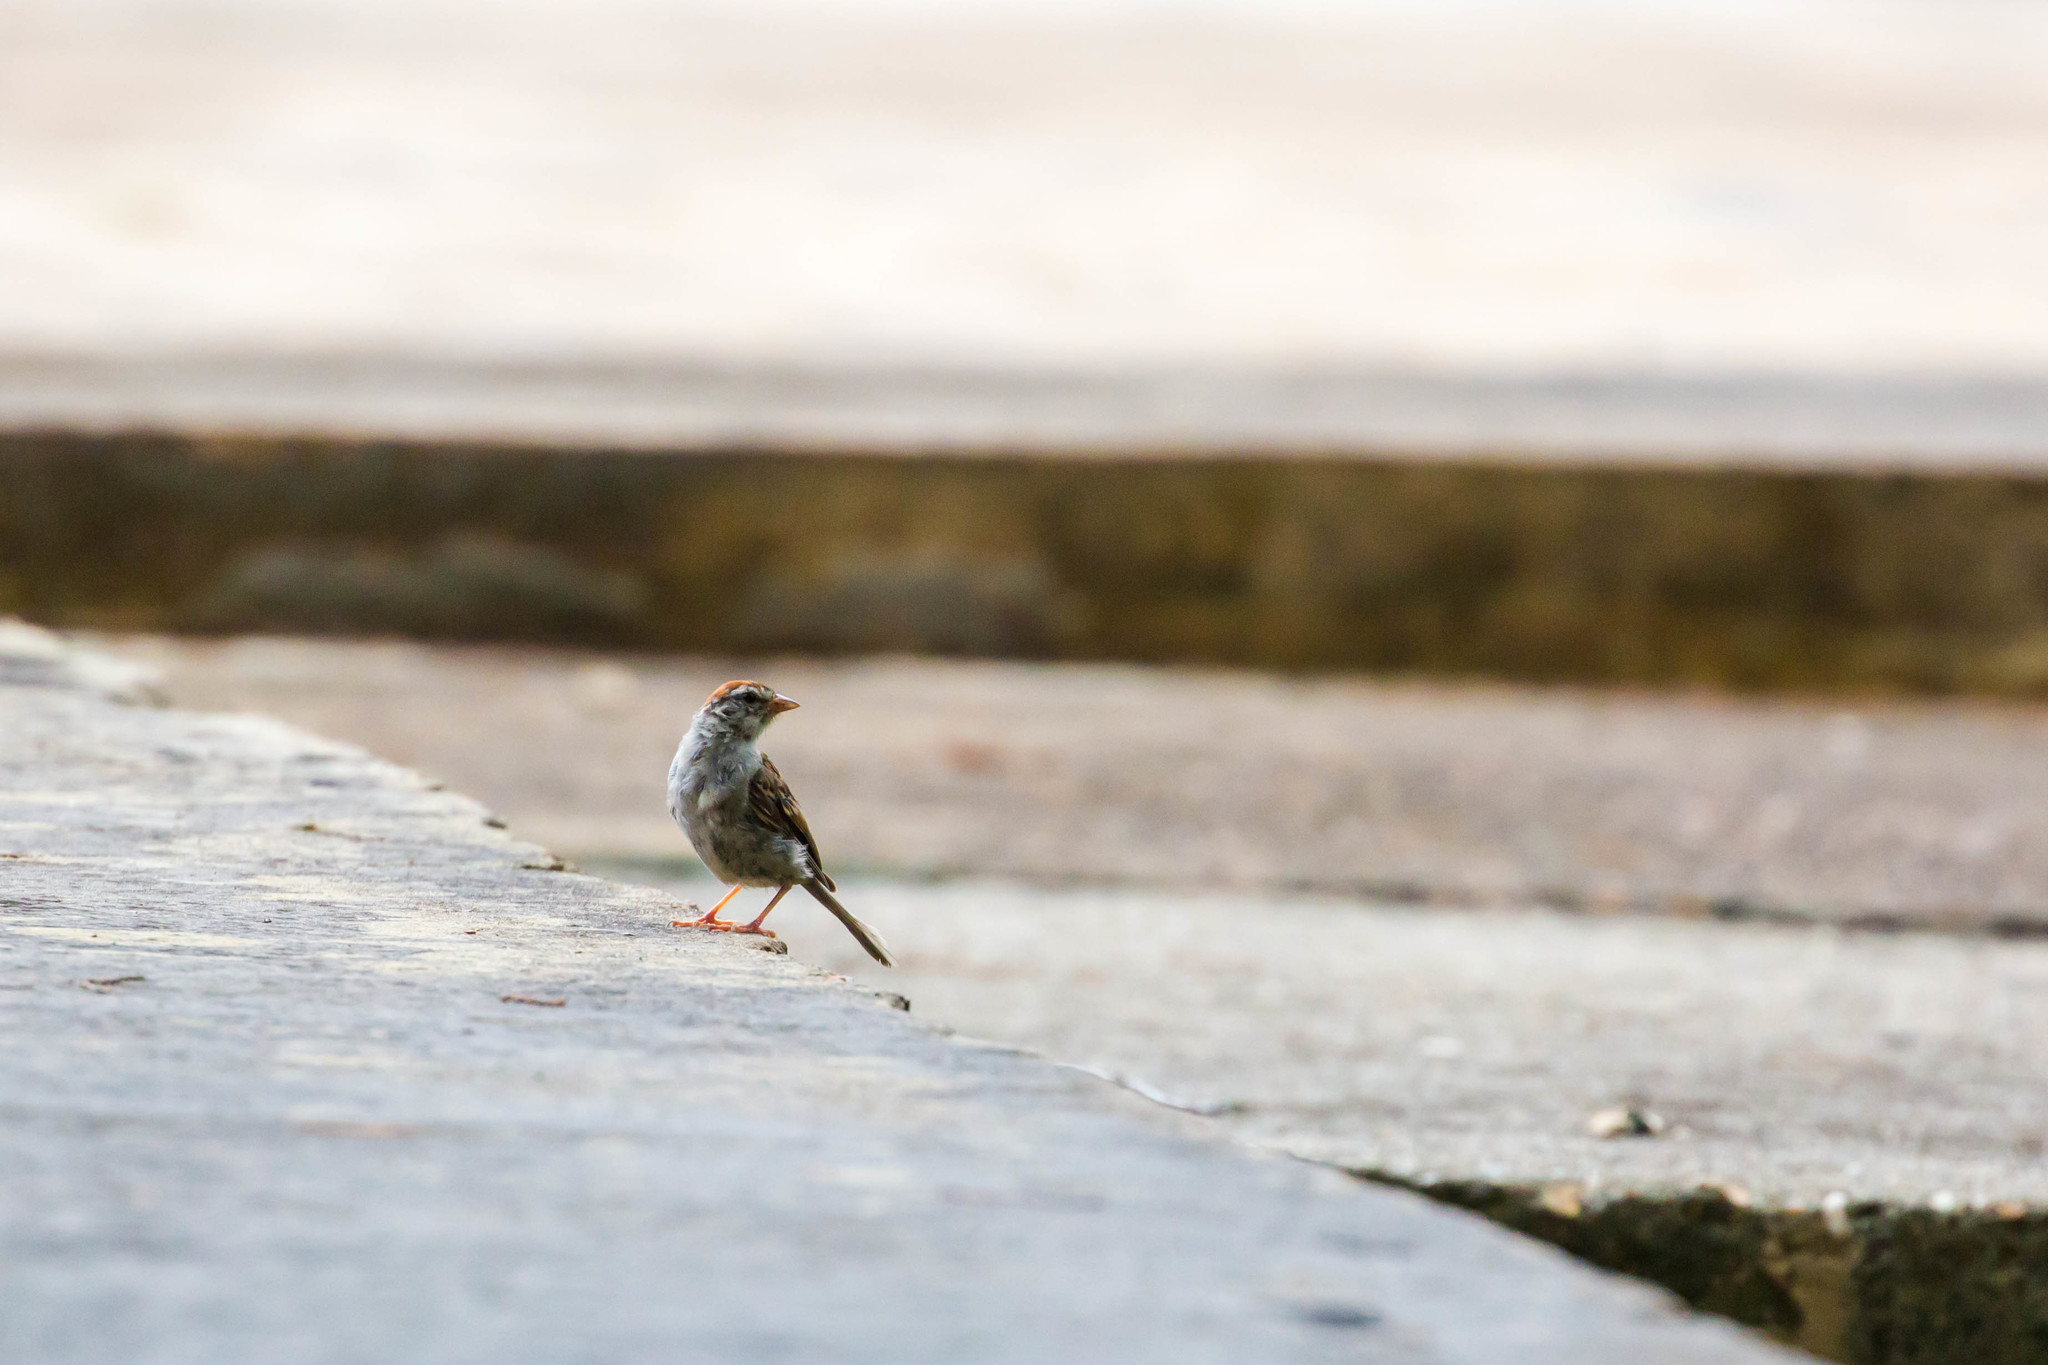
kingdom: Animalia
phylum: Chordata
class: Aves
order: Passeriformes
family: Passerellidae
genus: Spizella
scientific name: Spizella passerina
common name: Chipping sparrow
